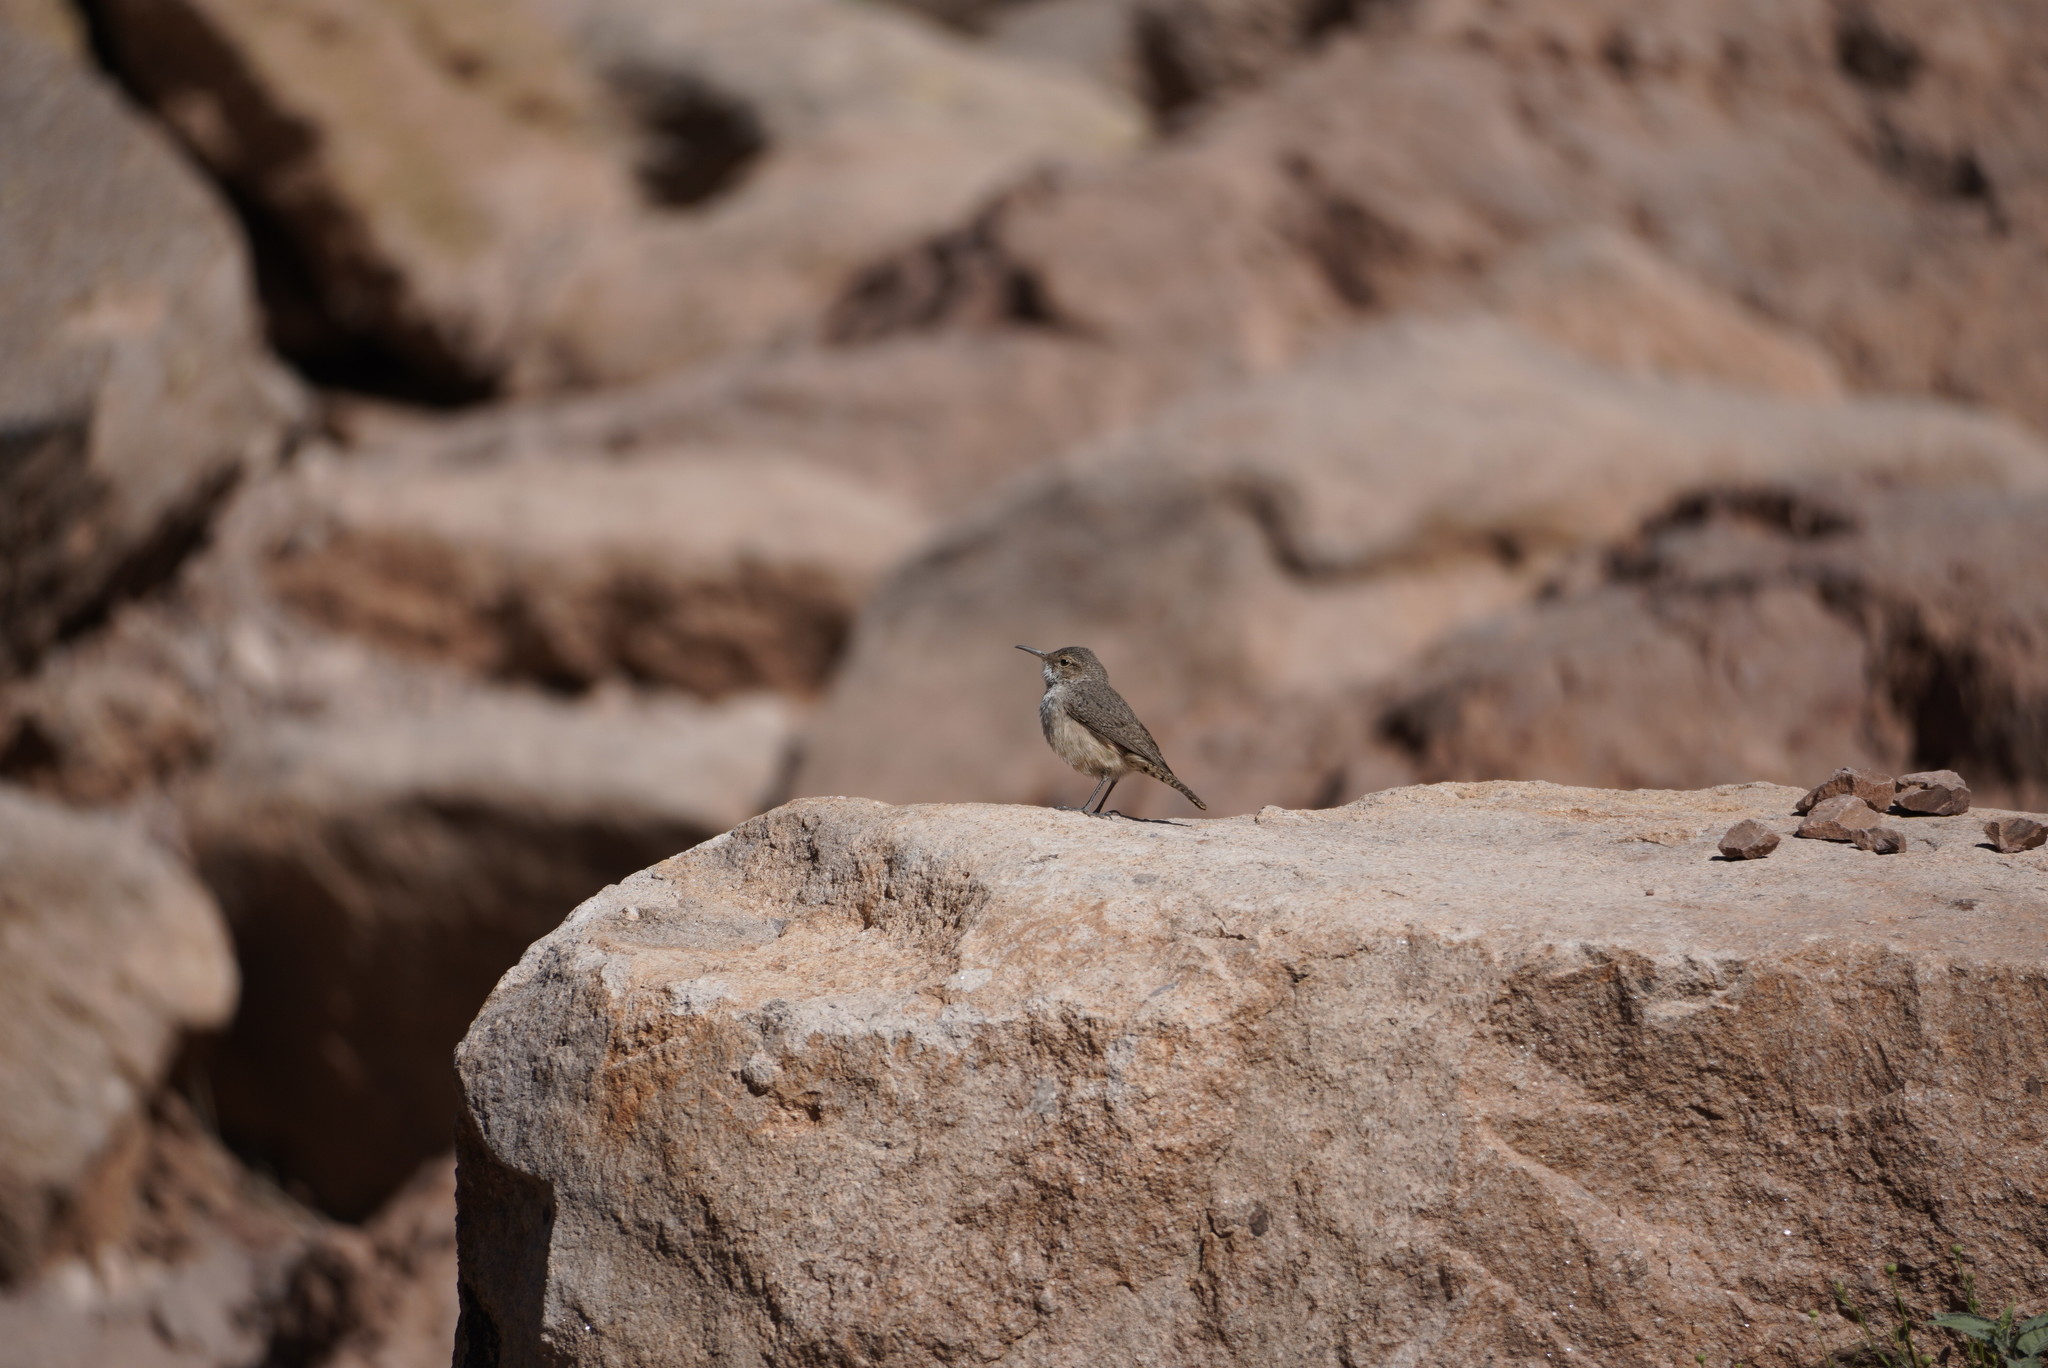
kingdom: Animalia
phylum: Chordata
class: Aves
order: Passeriformes
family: Troglodytidae
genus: Salpinctes
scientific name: Salpinctes obsoletus
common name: Rock wren
